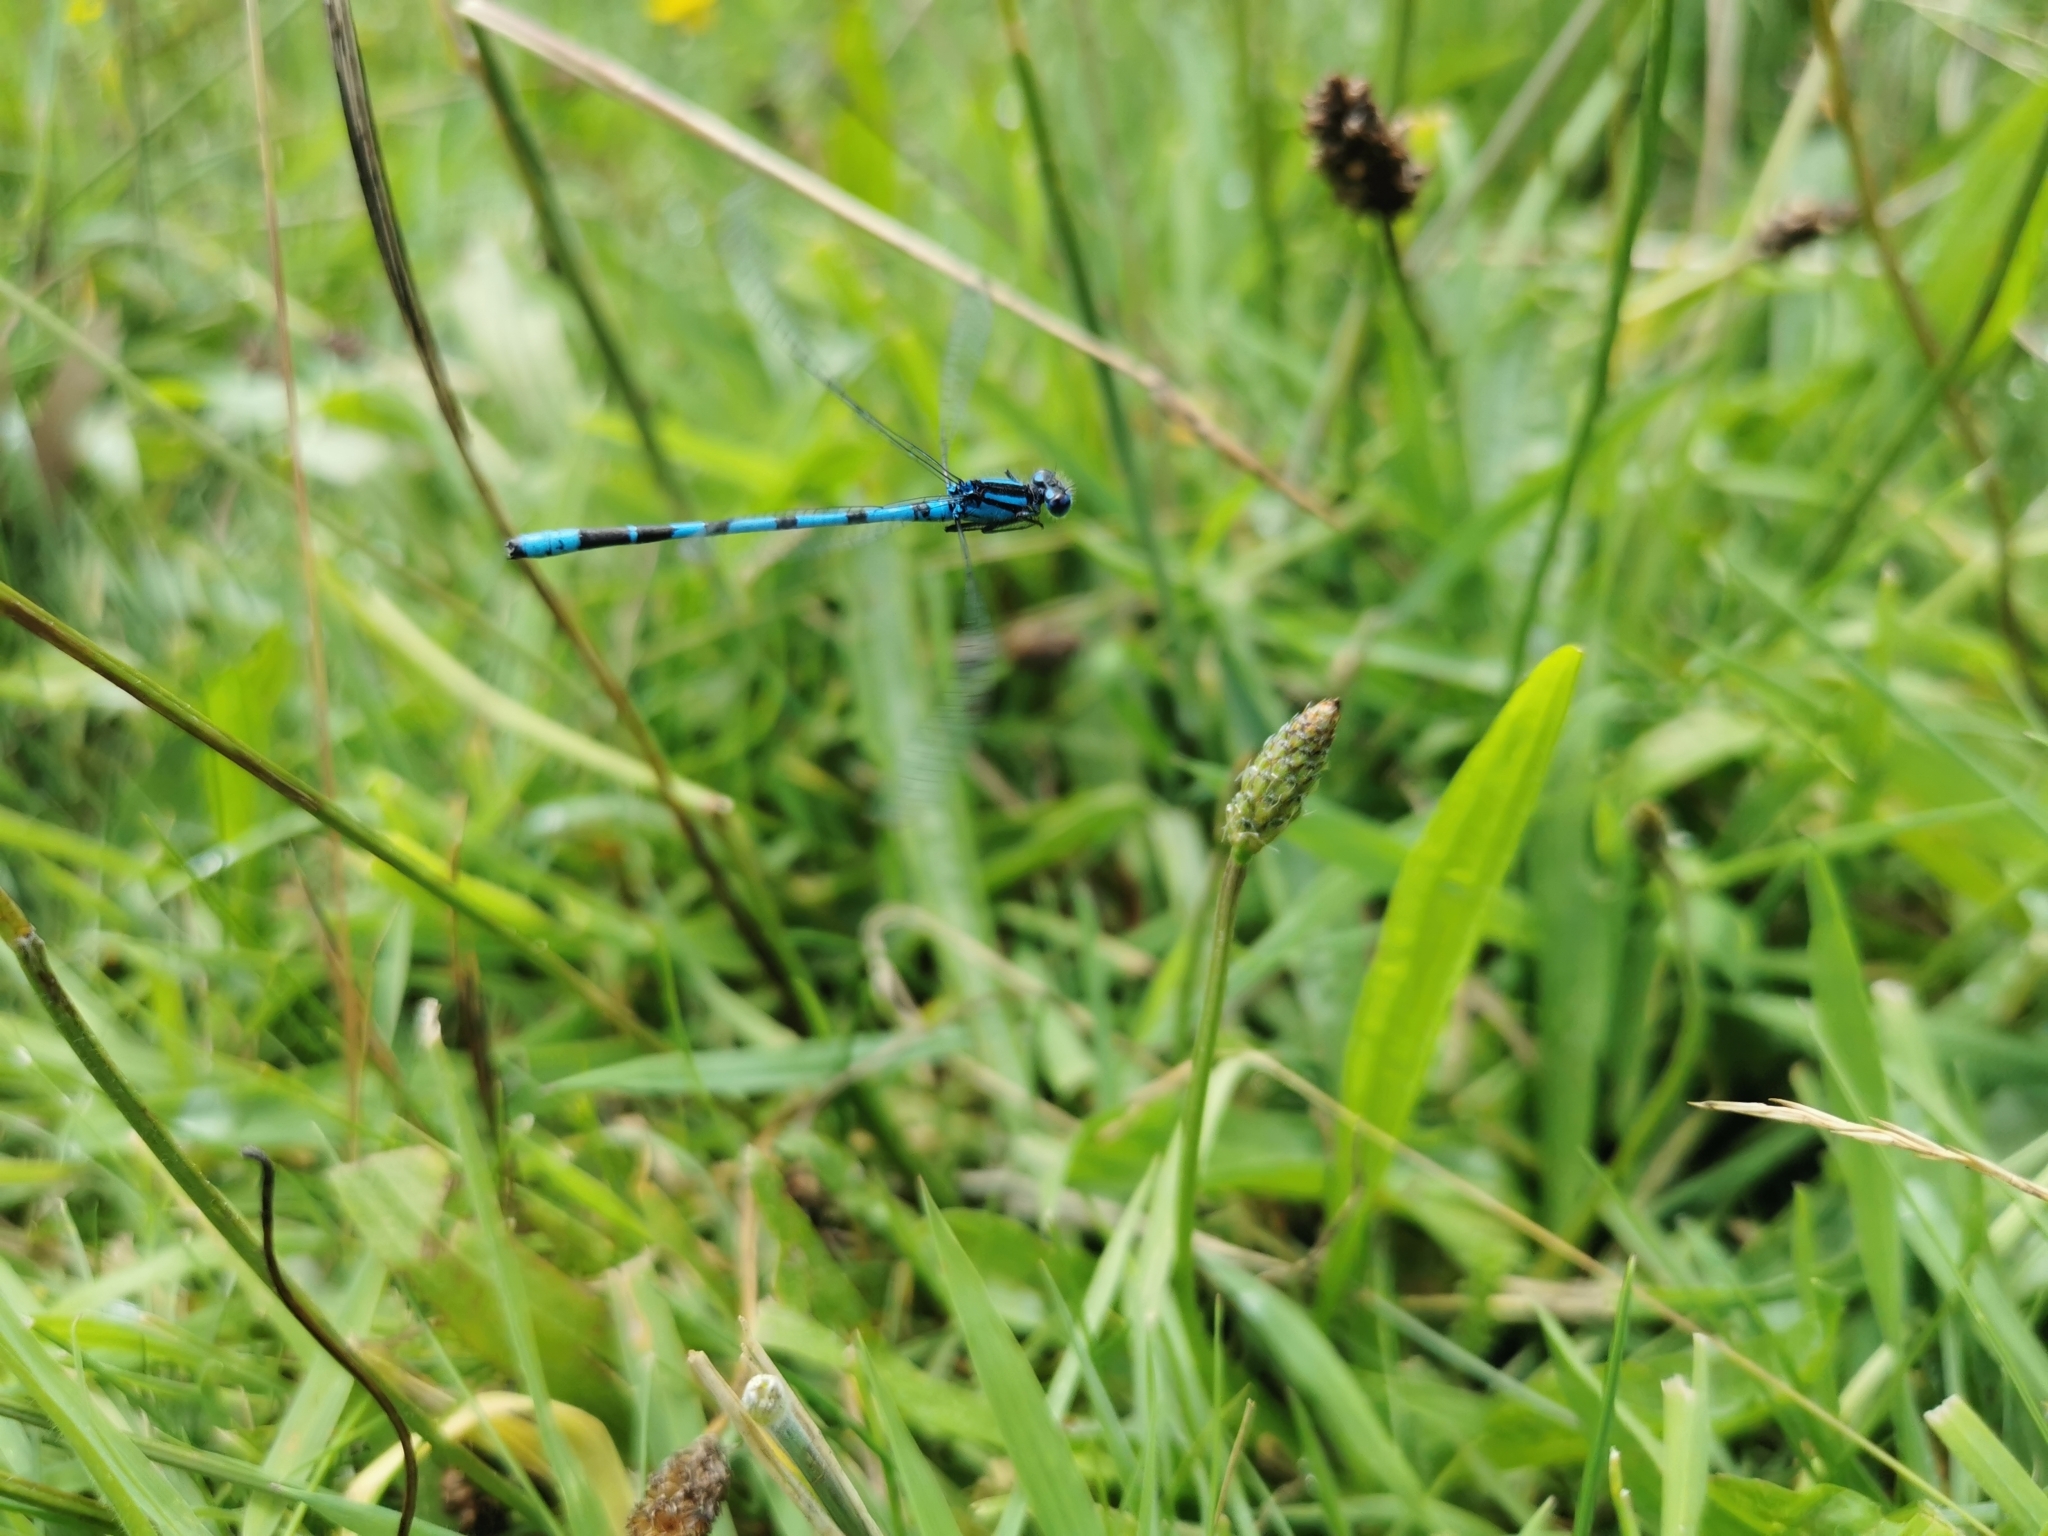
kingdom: Animalia
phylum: Arthropoda
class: Insecta
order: Odonata
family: Coenagrionidae
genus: Enallagma
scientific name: Enallagma cyathigerum
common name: Common blue damselfly
